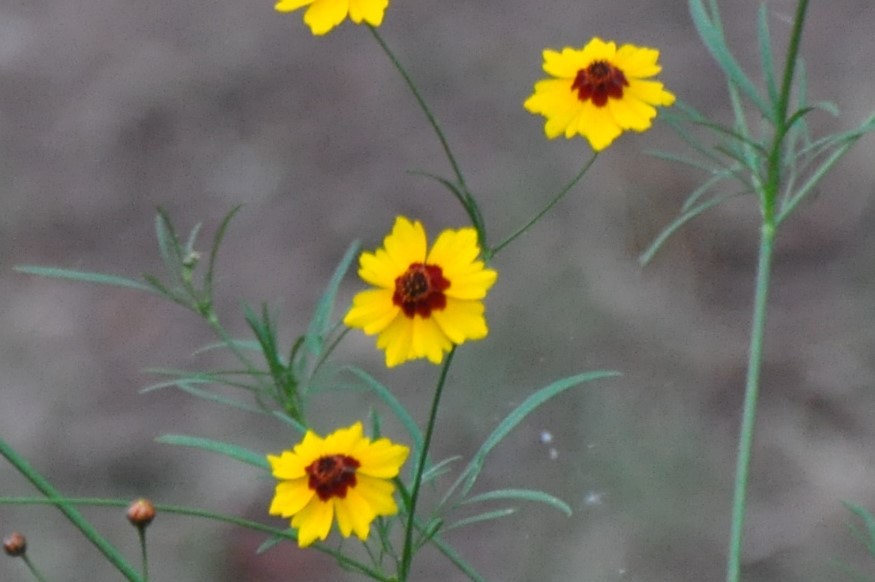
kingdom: Plantae
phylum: Tracheophyta
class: Magnoliopsida
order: Asterales
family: Asteraceae
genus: Coreopsis
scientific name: Coreopsis tinctoria
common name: Garden tickseed
